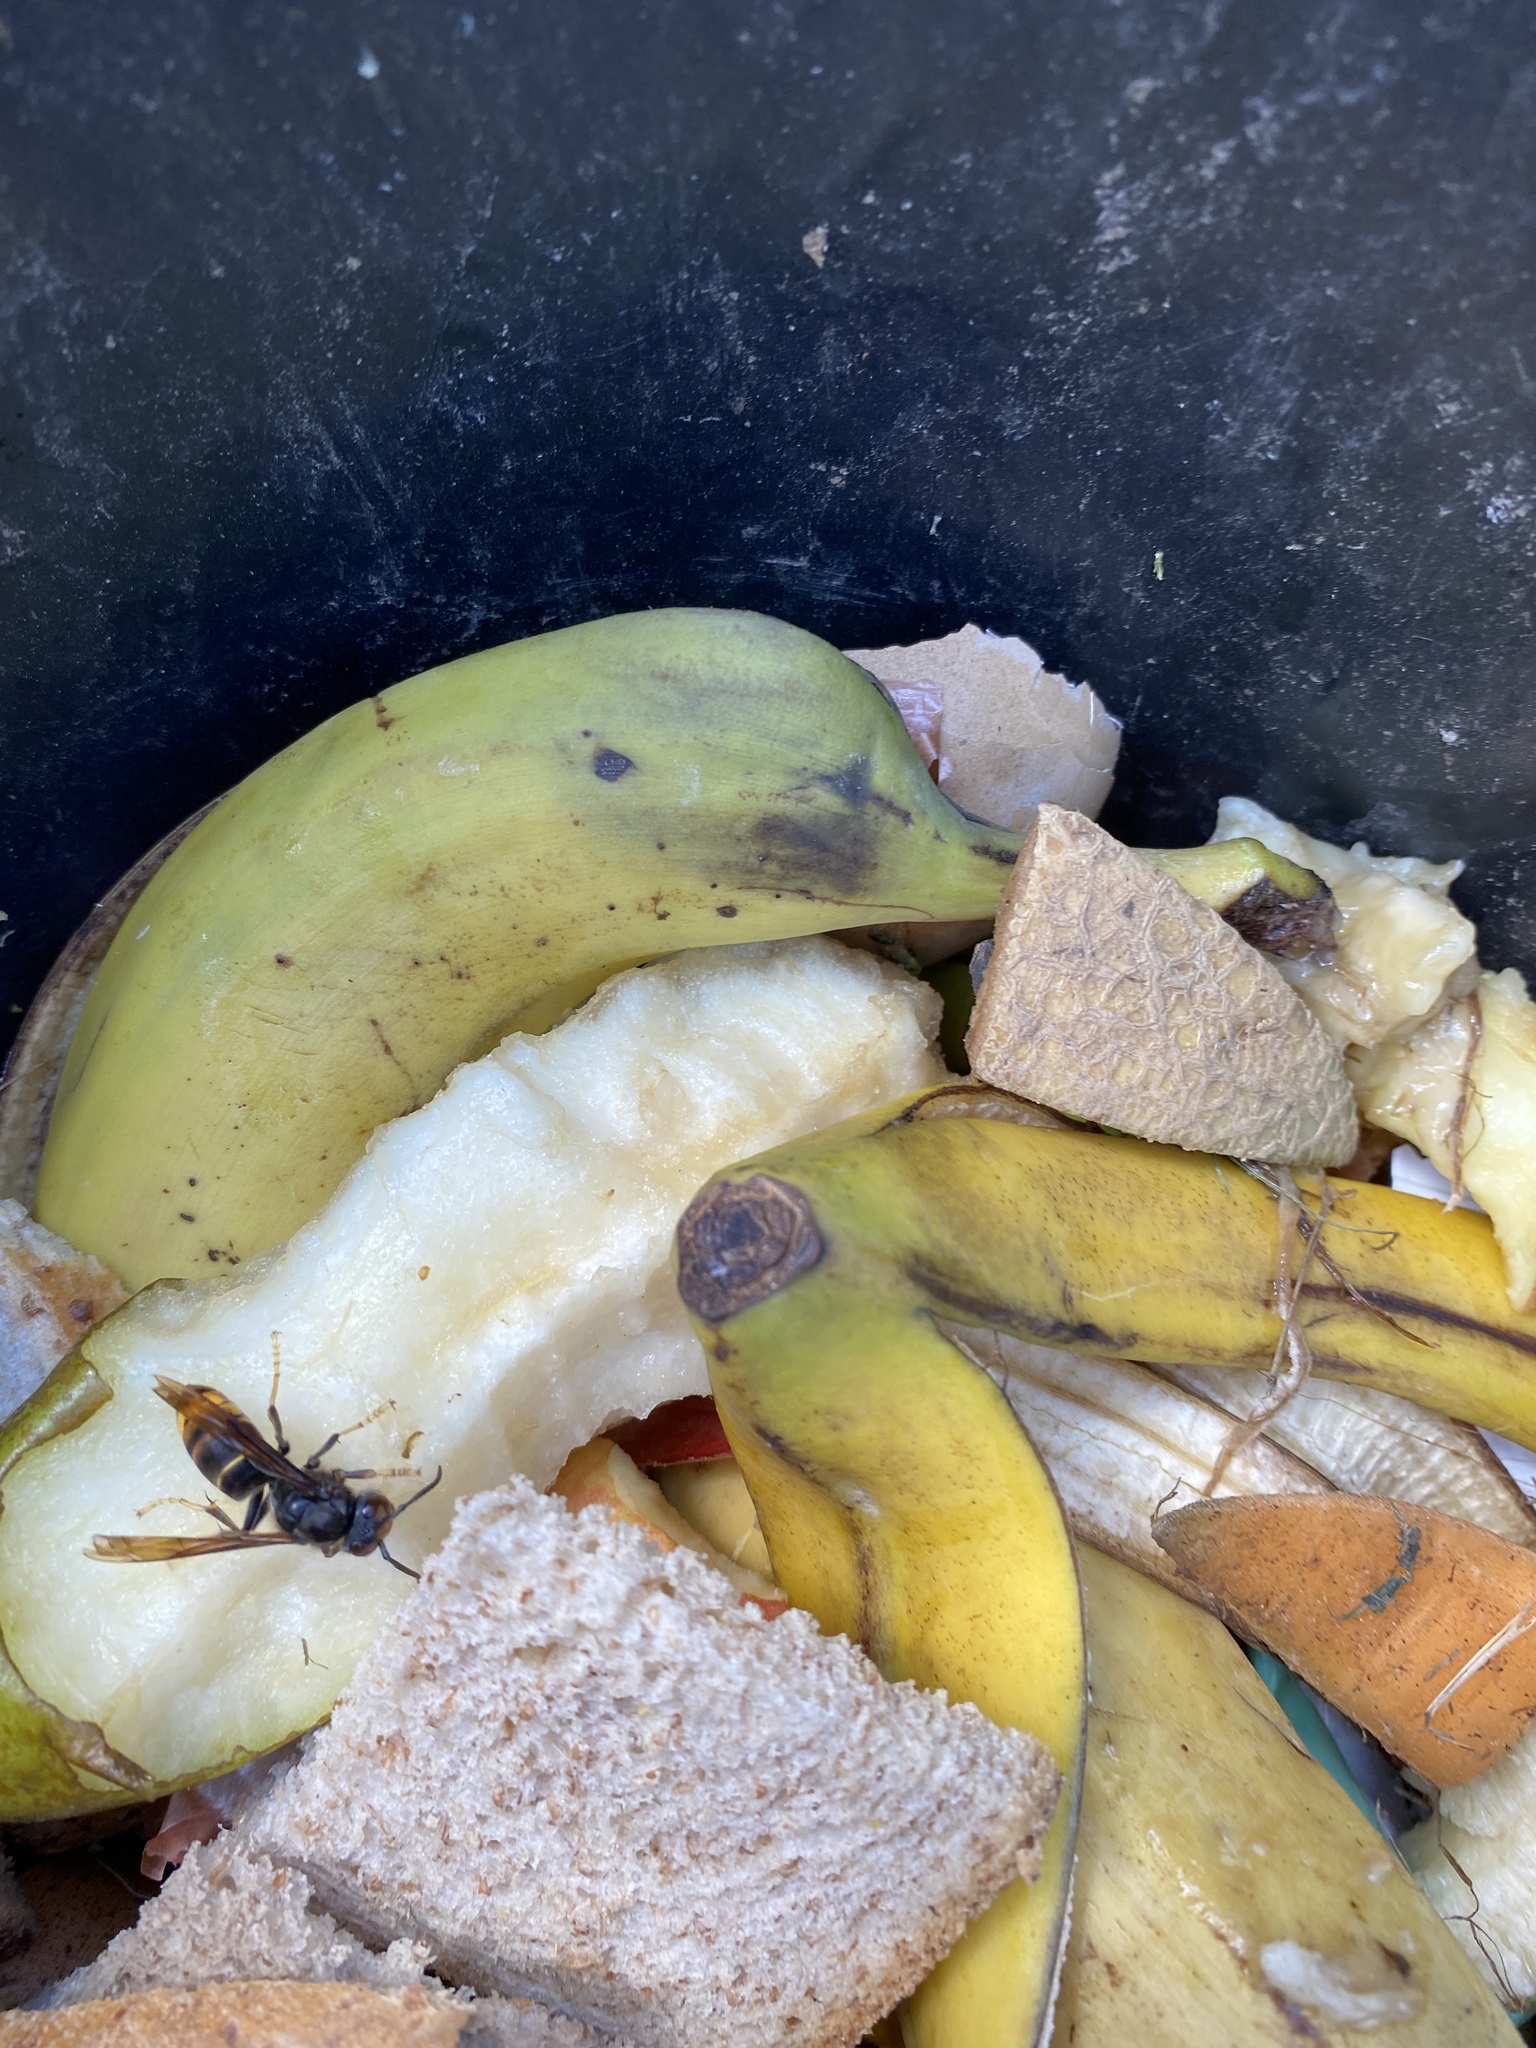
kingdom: Animalia
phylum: Arthropoda
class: Insecta
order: Hymenoptera
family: Vespidae
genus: Vespa
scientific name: Vespa velutina
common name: Asian hornet
